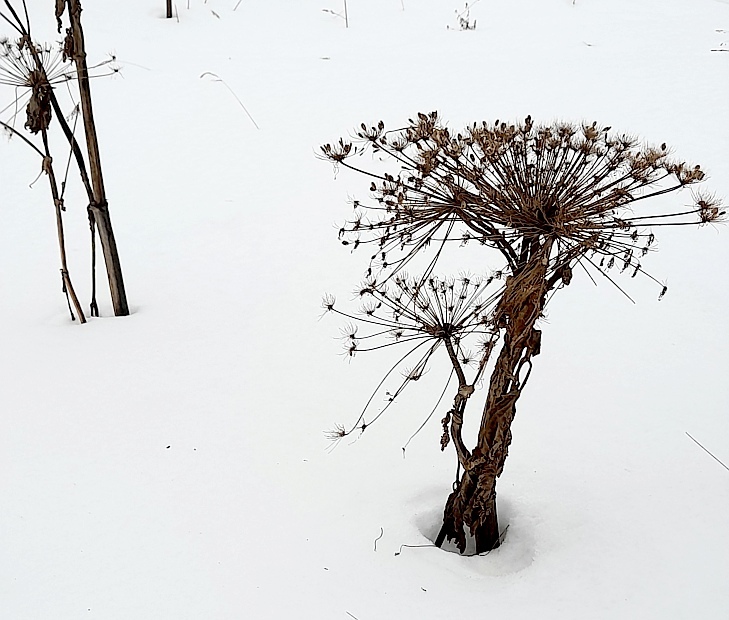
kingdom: Plantae
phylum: Tracheophyta
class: Magnoliopsida
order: Apiales
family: Apiaceae
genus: Heracleum
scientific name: Heracleum sosnowskyi
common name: Sosnowsky's hogweed
